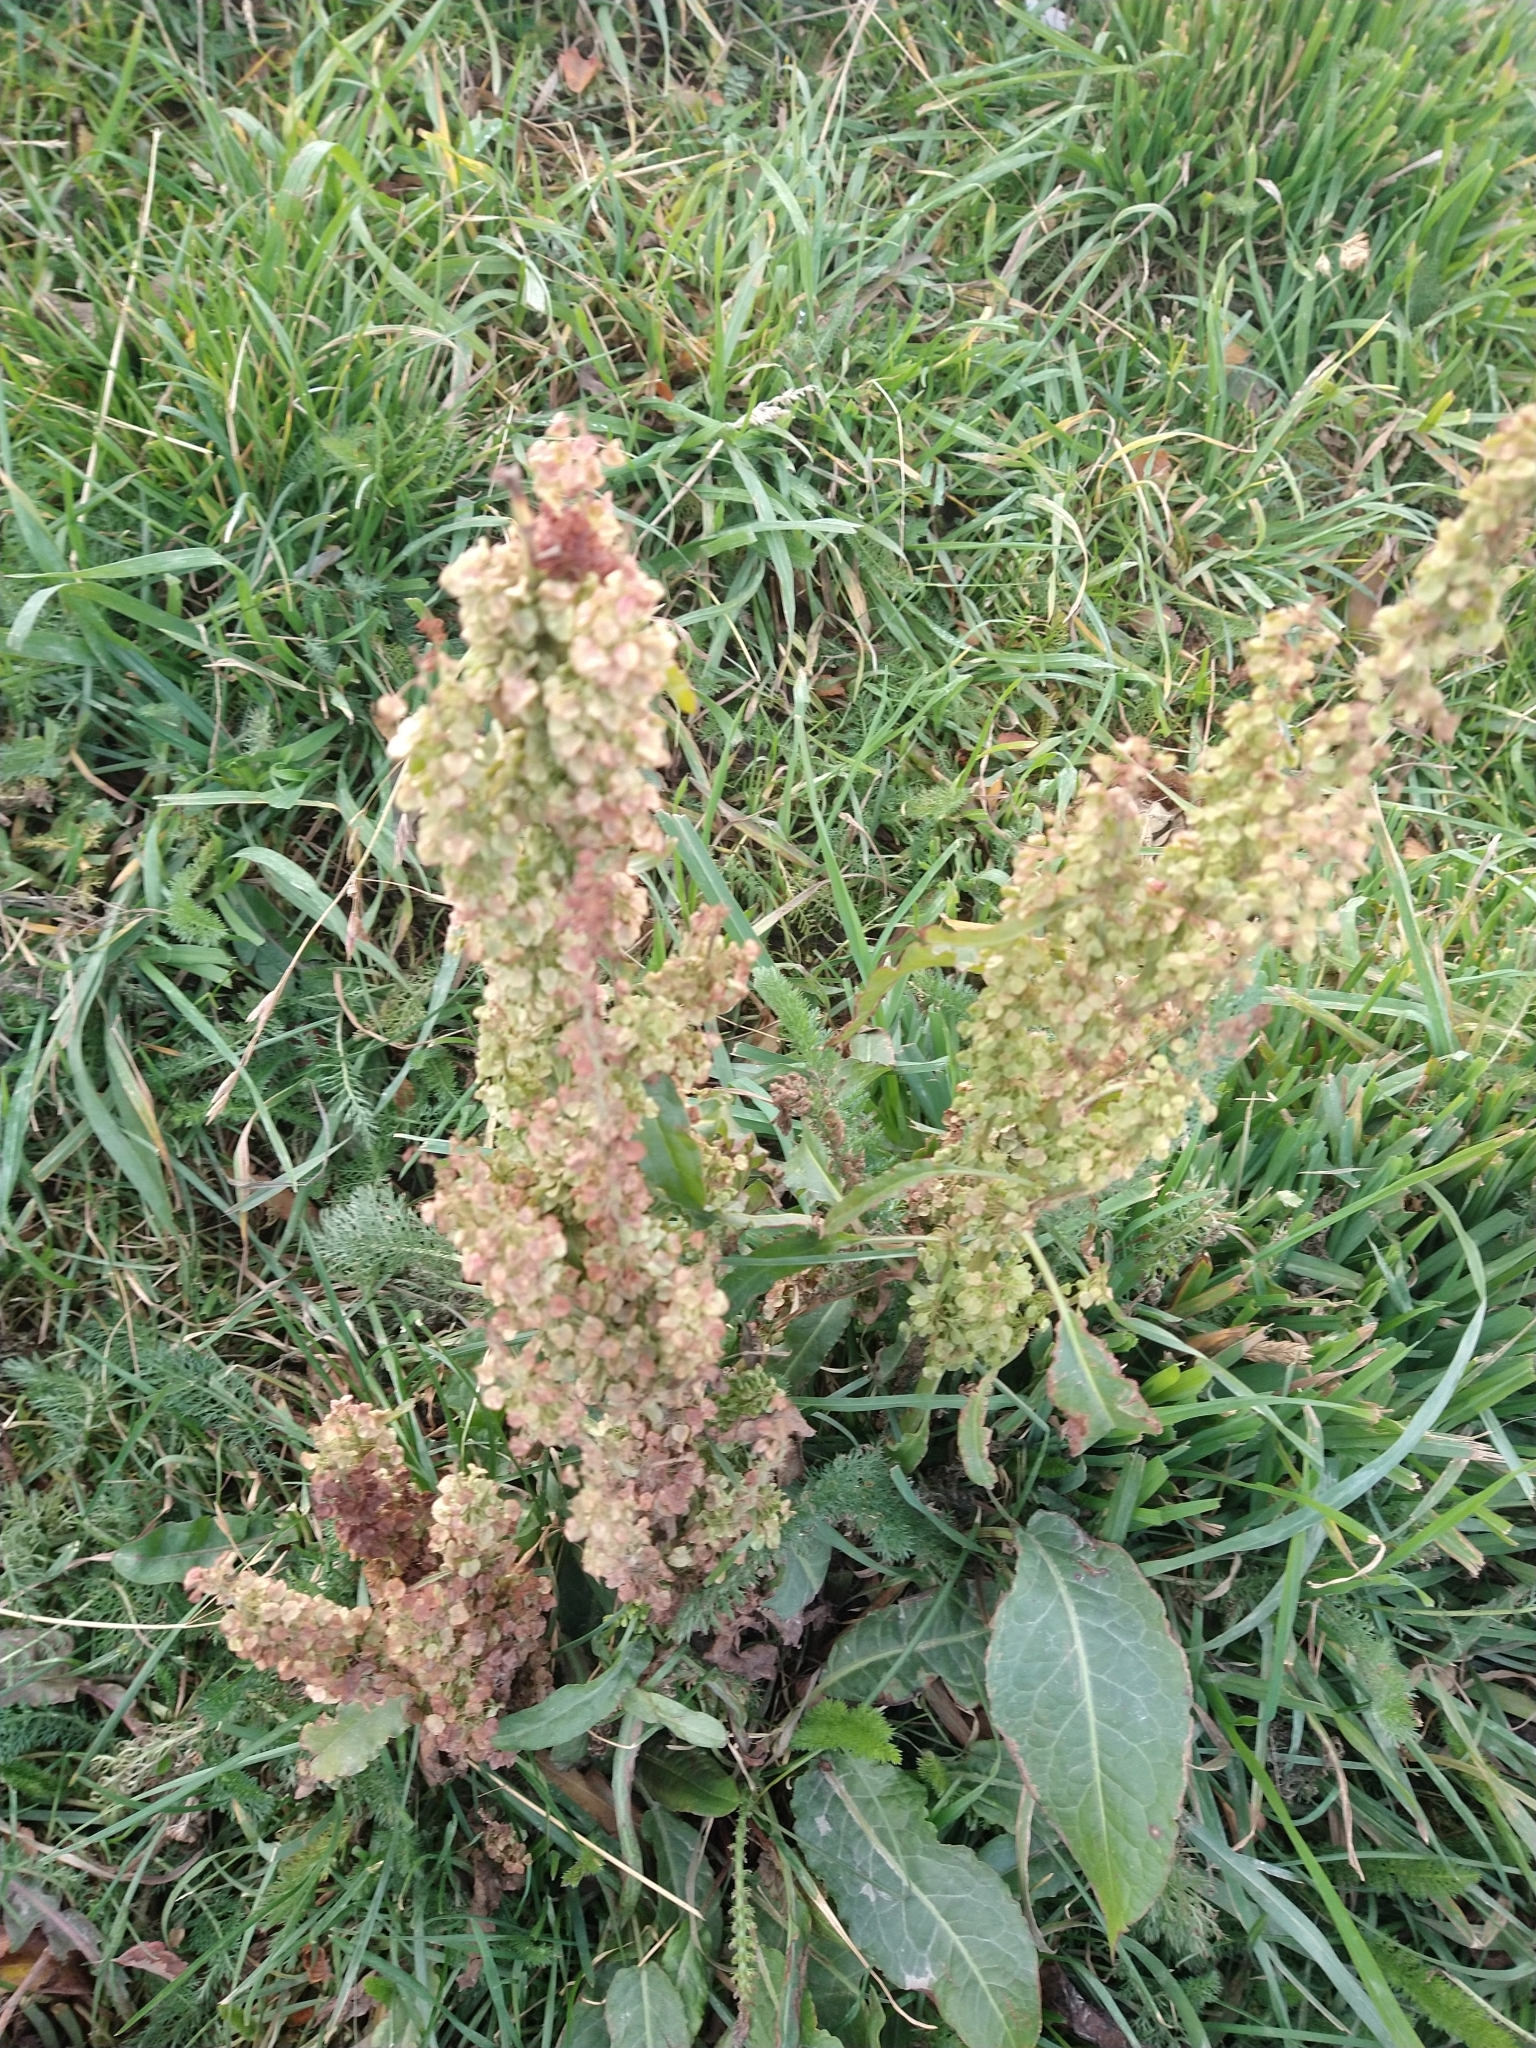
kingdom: Plantae
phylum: Tracheophyta
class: Magnoliopsida
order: Caryophyllales
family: Polygonaceae
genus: Rumex
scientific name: Rumex crispus
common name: Curled dock
